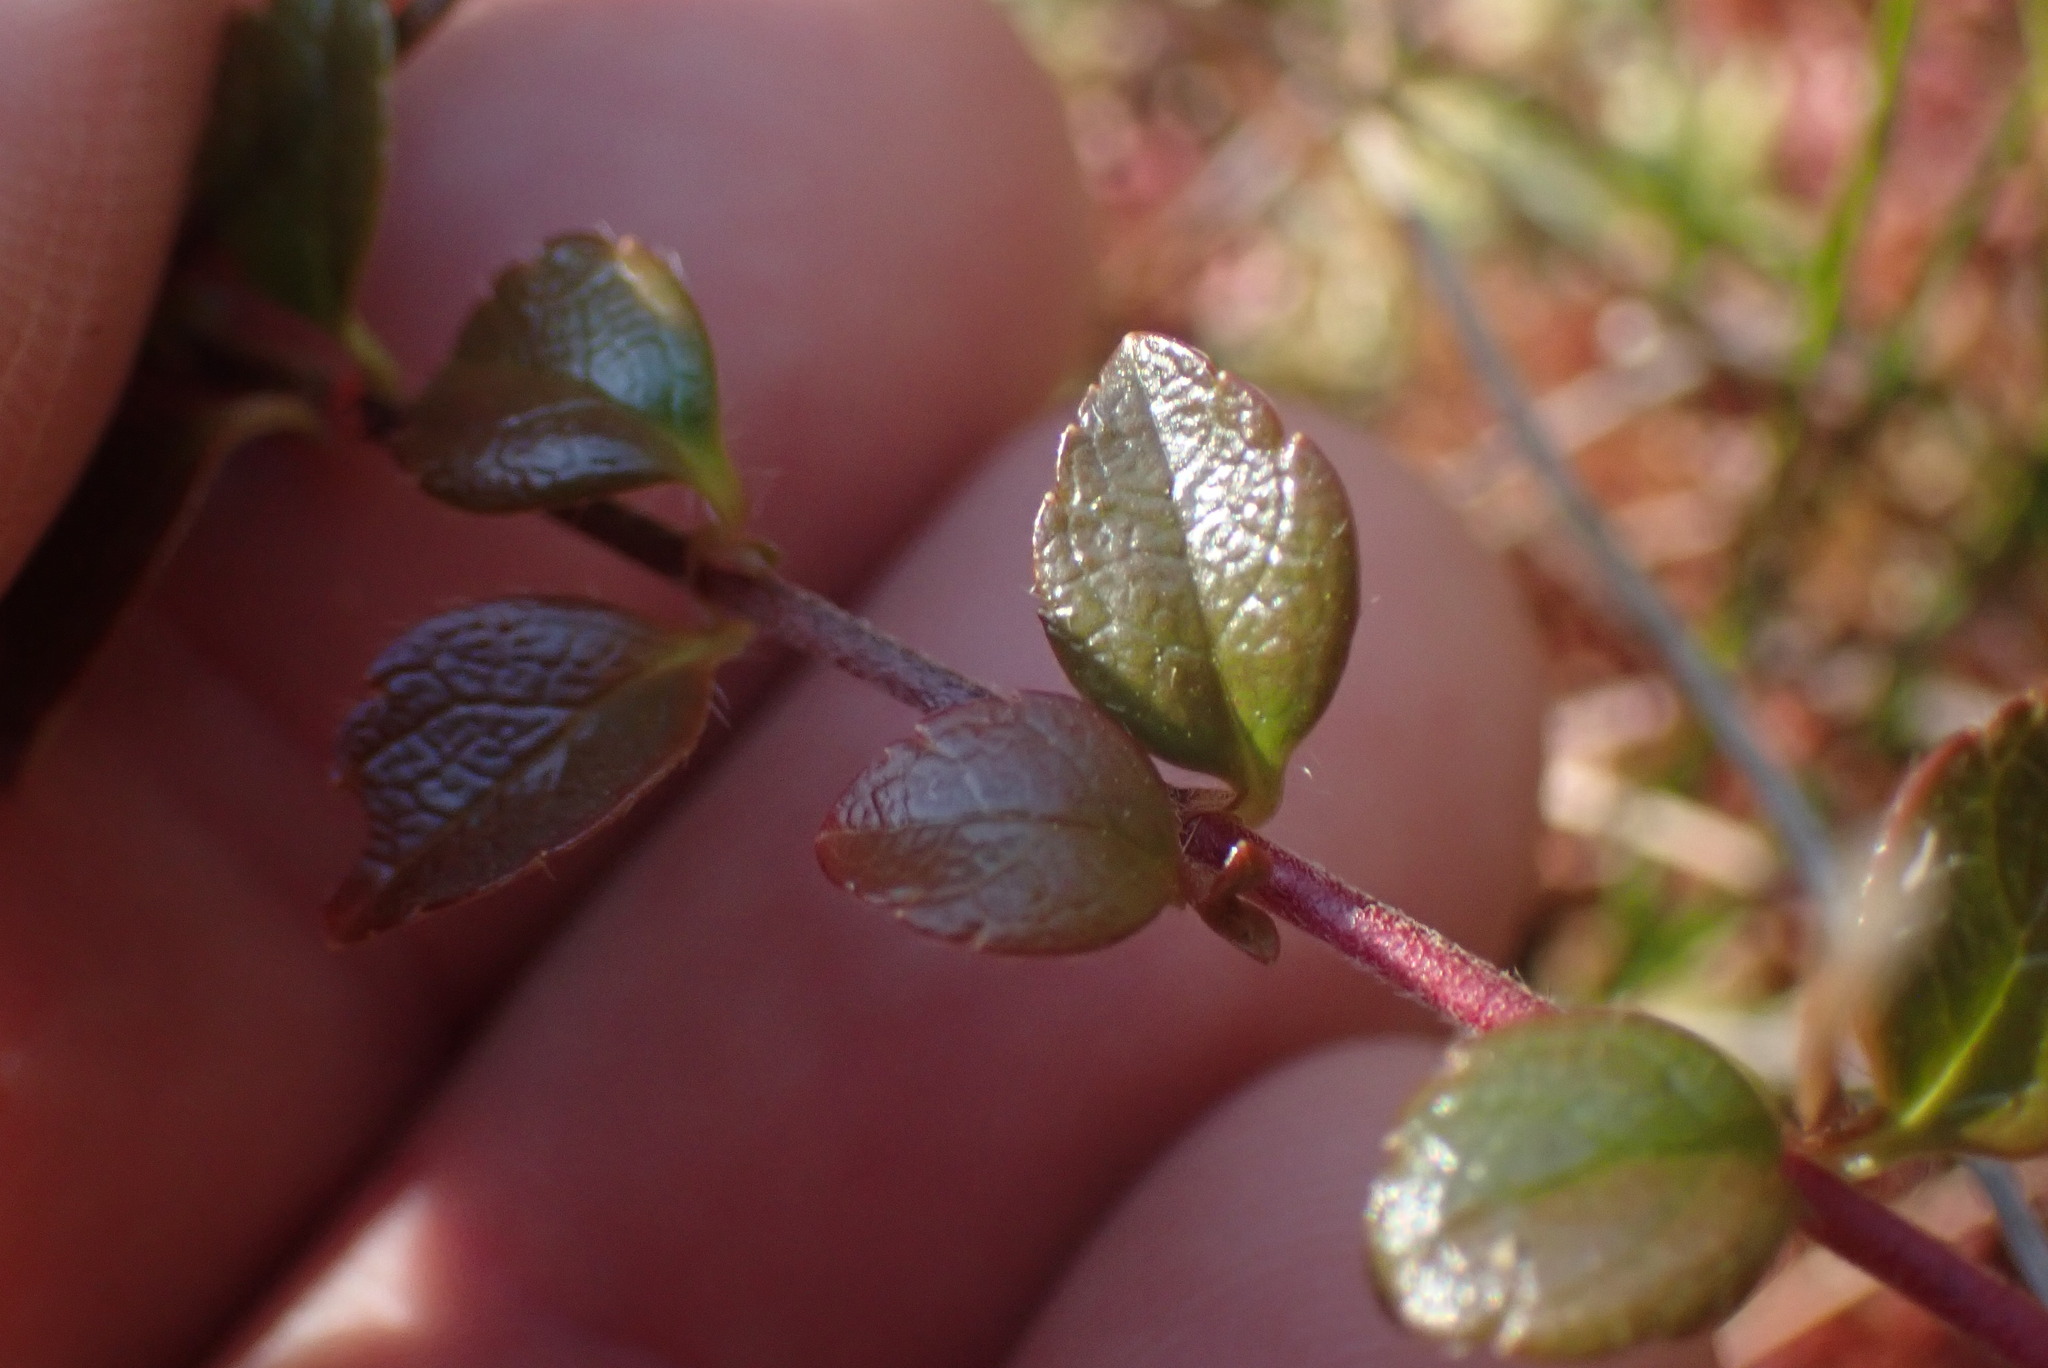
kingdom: Plantae
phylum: Tracheophyta
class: Magnoliopsida
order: Dipsacales
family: Caprifoliaceae
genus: Linnaea
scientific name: Linnaea borealis
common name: Twinflower
